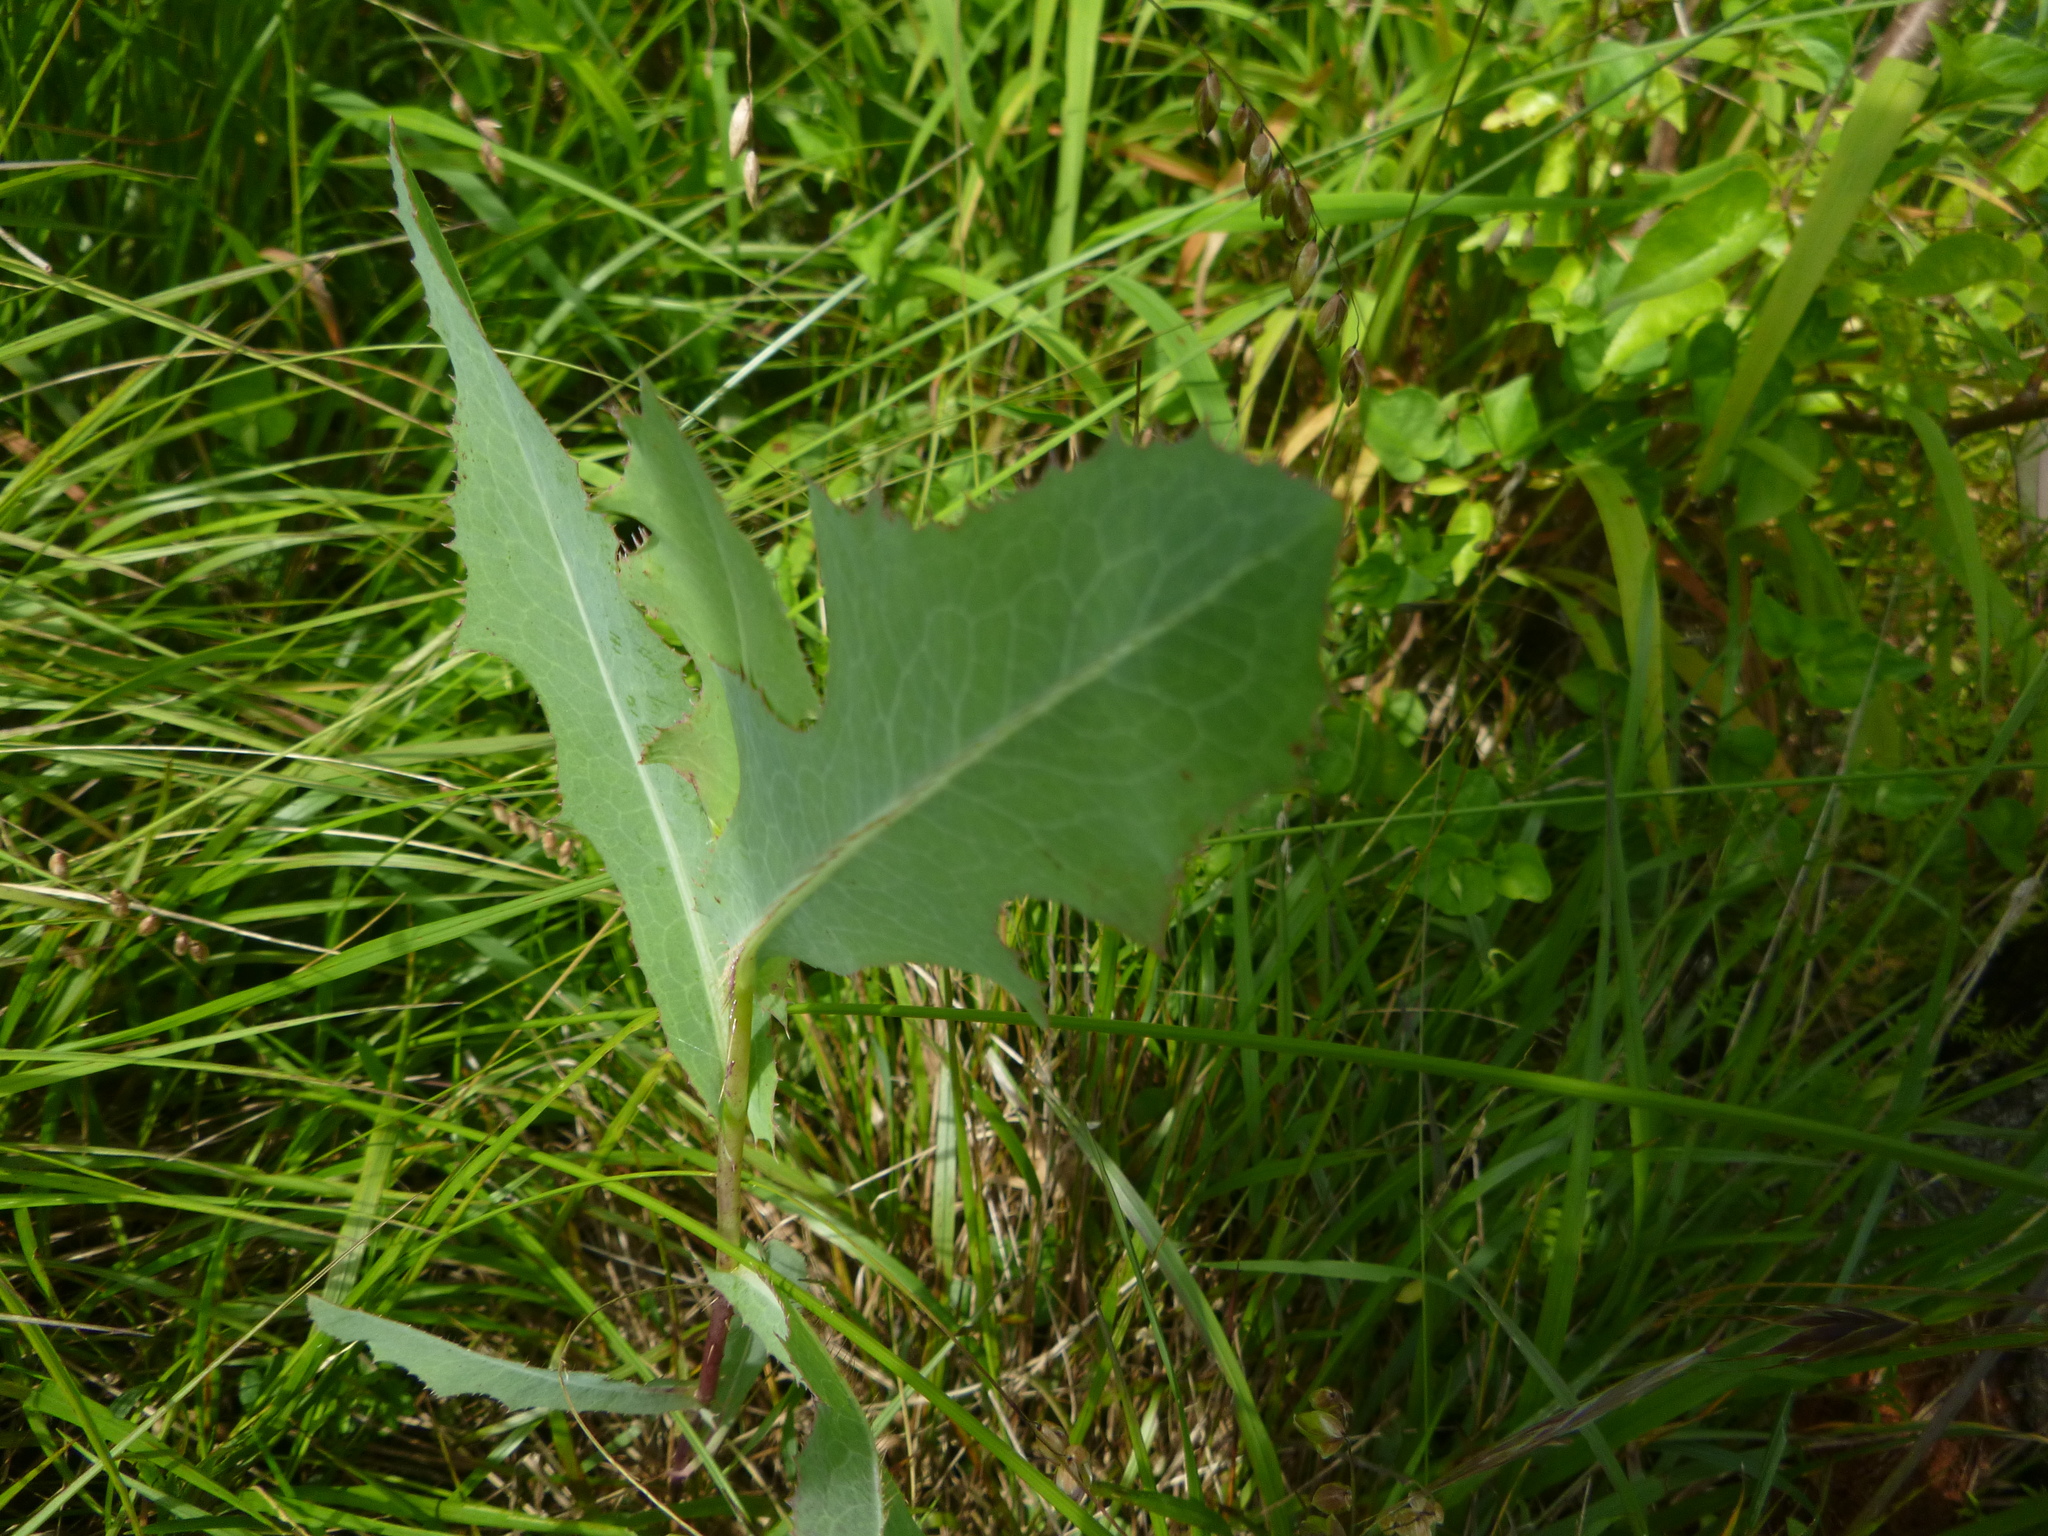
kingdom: Plantae
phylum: Tracheophyta
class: Magnoliopsida
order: Asterales
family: Asteraceae
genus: Lactuca
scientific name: Lactuca serriola
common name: Prickly lettuce
